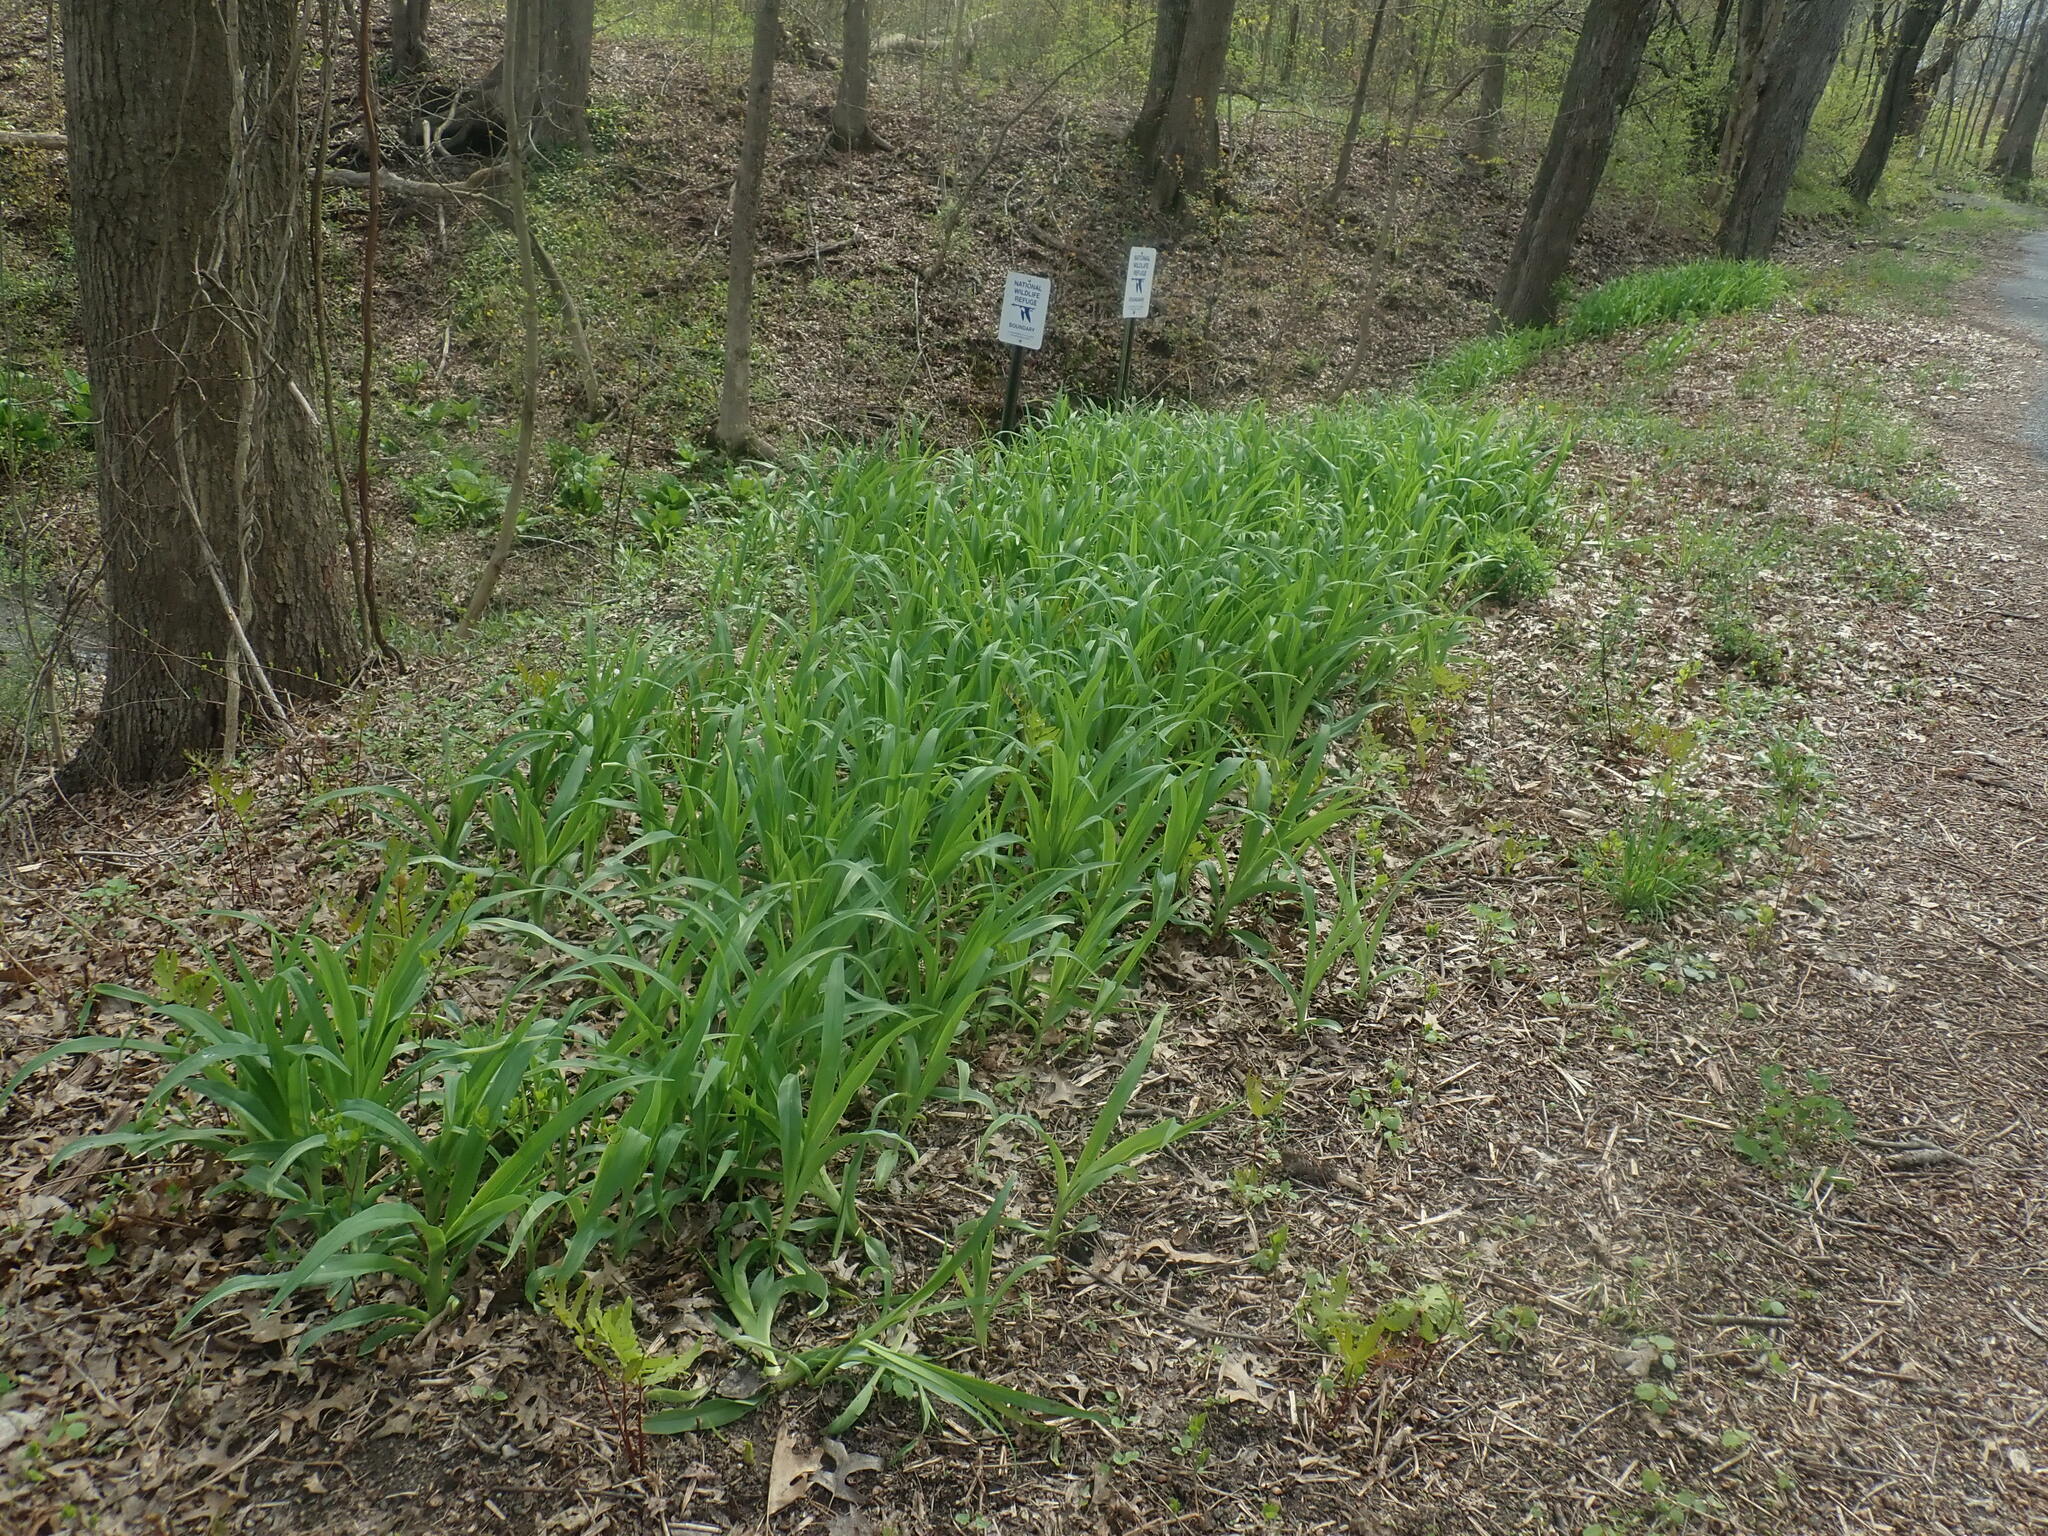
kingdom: Plantae
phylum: Tracheophyta
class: Liliopsida
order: Asparagales
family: Asphodelaceae
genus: Hemerocallis
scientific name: Hemerocallis
